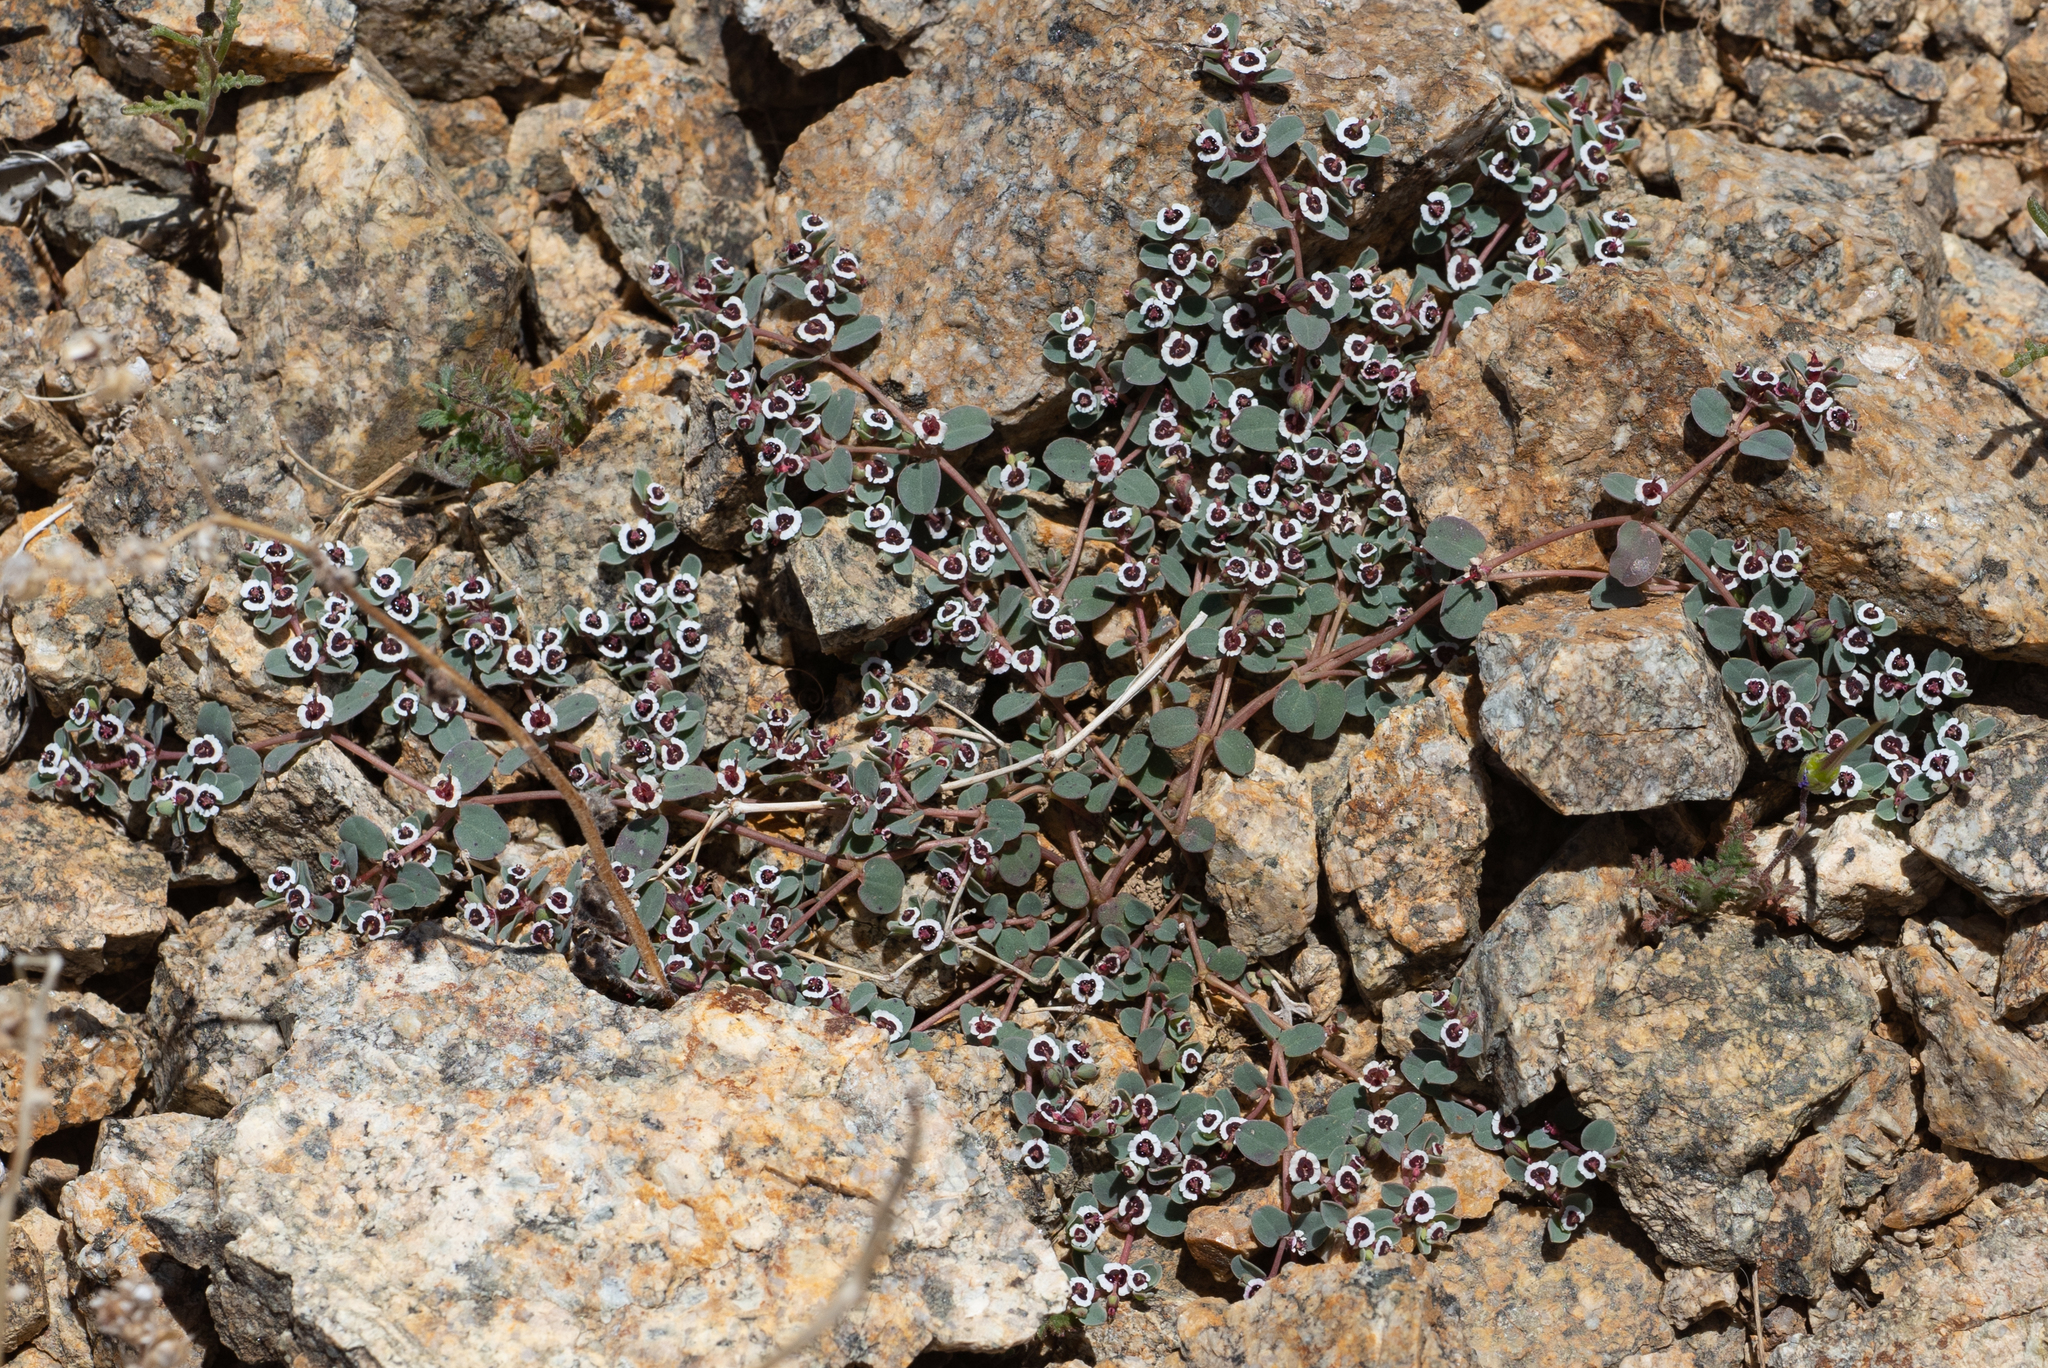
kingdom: Plantae
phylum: Tracheophyta
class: Magnoliopsida
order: Malpighiales
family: Euphorbiaceae
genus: Euphorbia
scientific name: Euphorbia albomarginata
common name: Whitemargin sandmat
